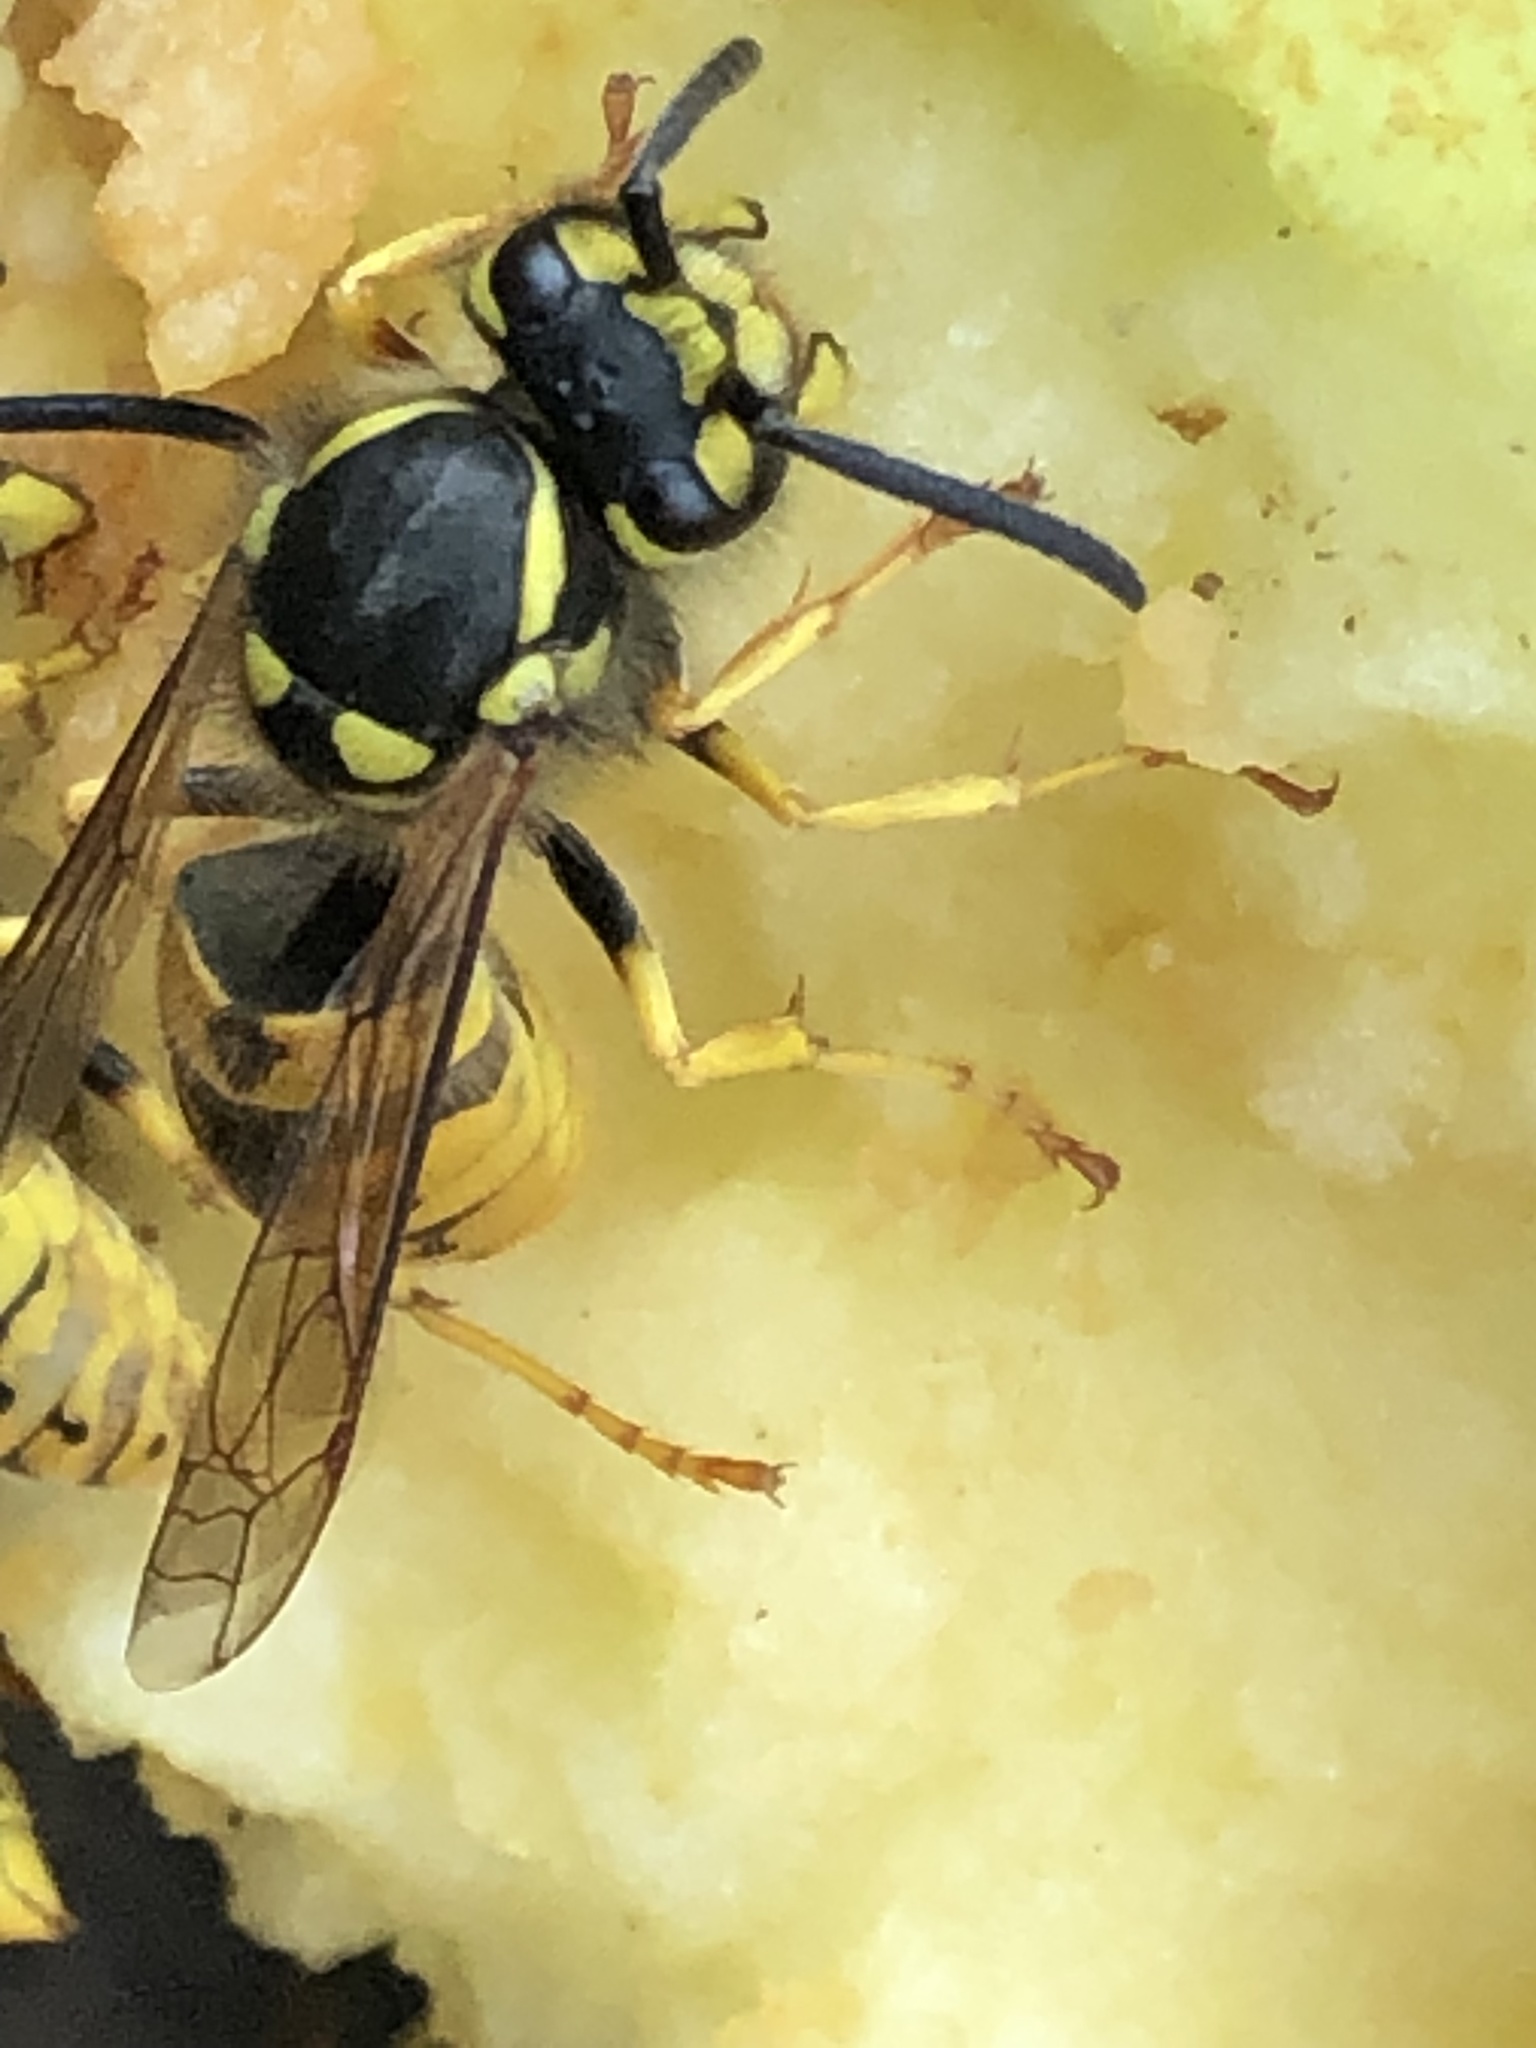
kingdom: Animalia
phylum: Arthropoda
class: Insecta
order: Hymenoptera
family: Vespidae
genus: Vespula
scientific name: Vespula germanica
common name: German wasp
